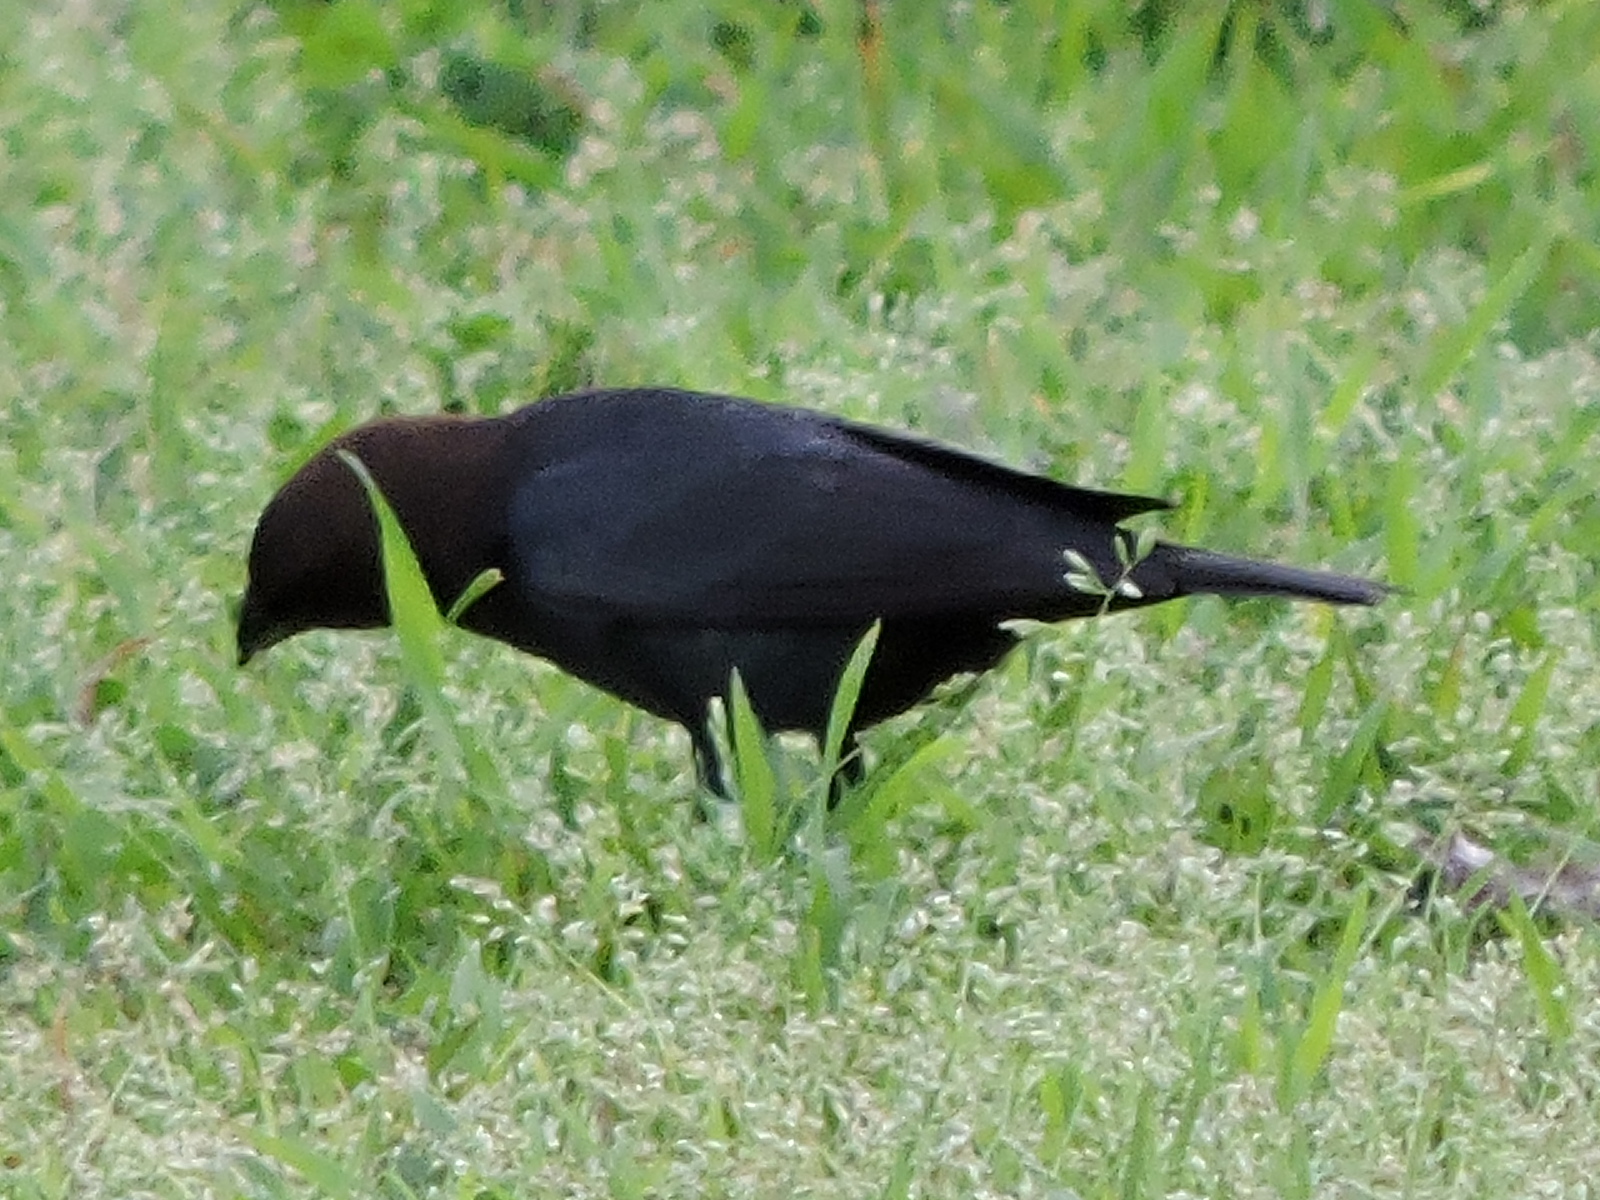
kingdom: Animalia
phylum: Chordata
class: Aves
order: Passeriformes
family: Icteridae
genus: Molothrus
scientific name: Molothrus ater
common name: Brown-headed cowbird
